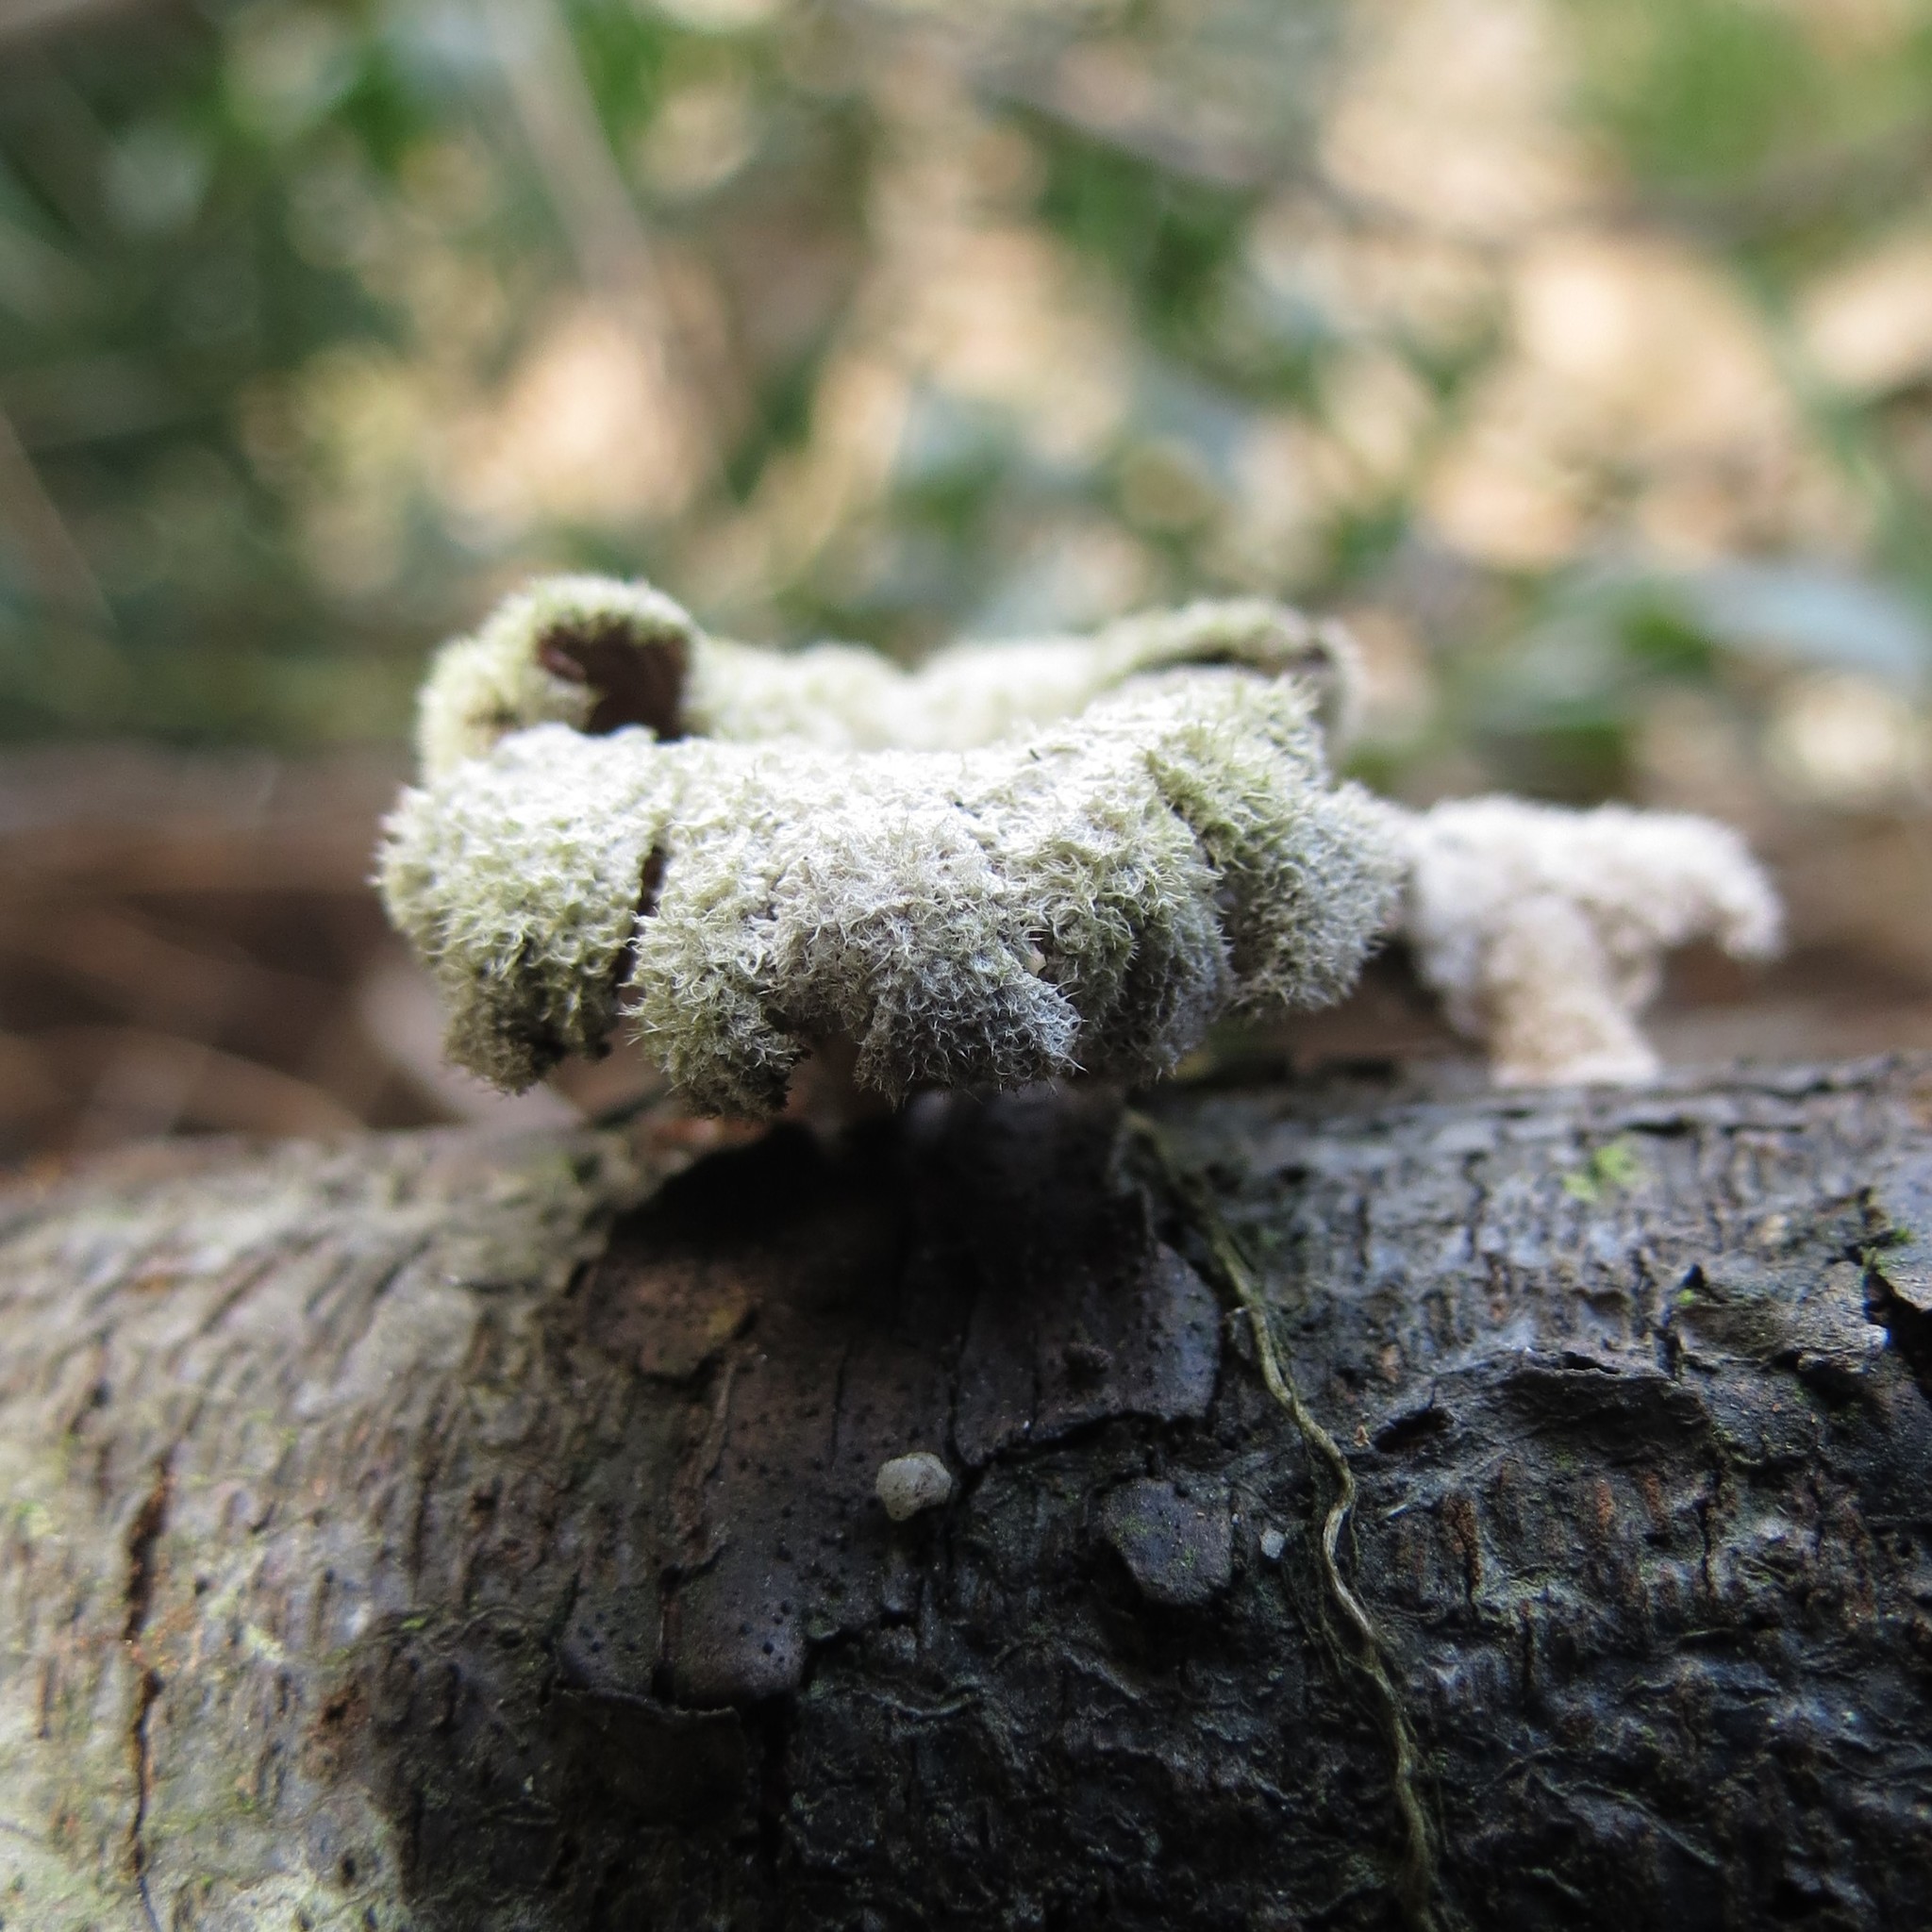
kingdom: Fungi
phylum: Basidiomycota
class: Agaricomycetes
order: Agaricales
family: Schizophyllaceae
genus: Schizophyllum
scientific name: Schizophyllum commune
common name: Common porecrust
